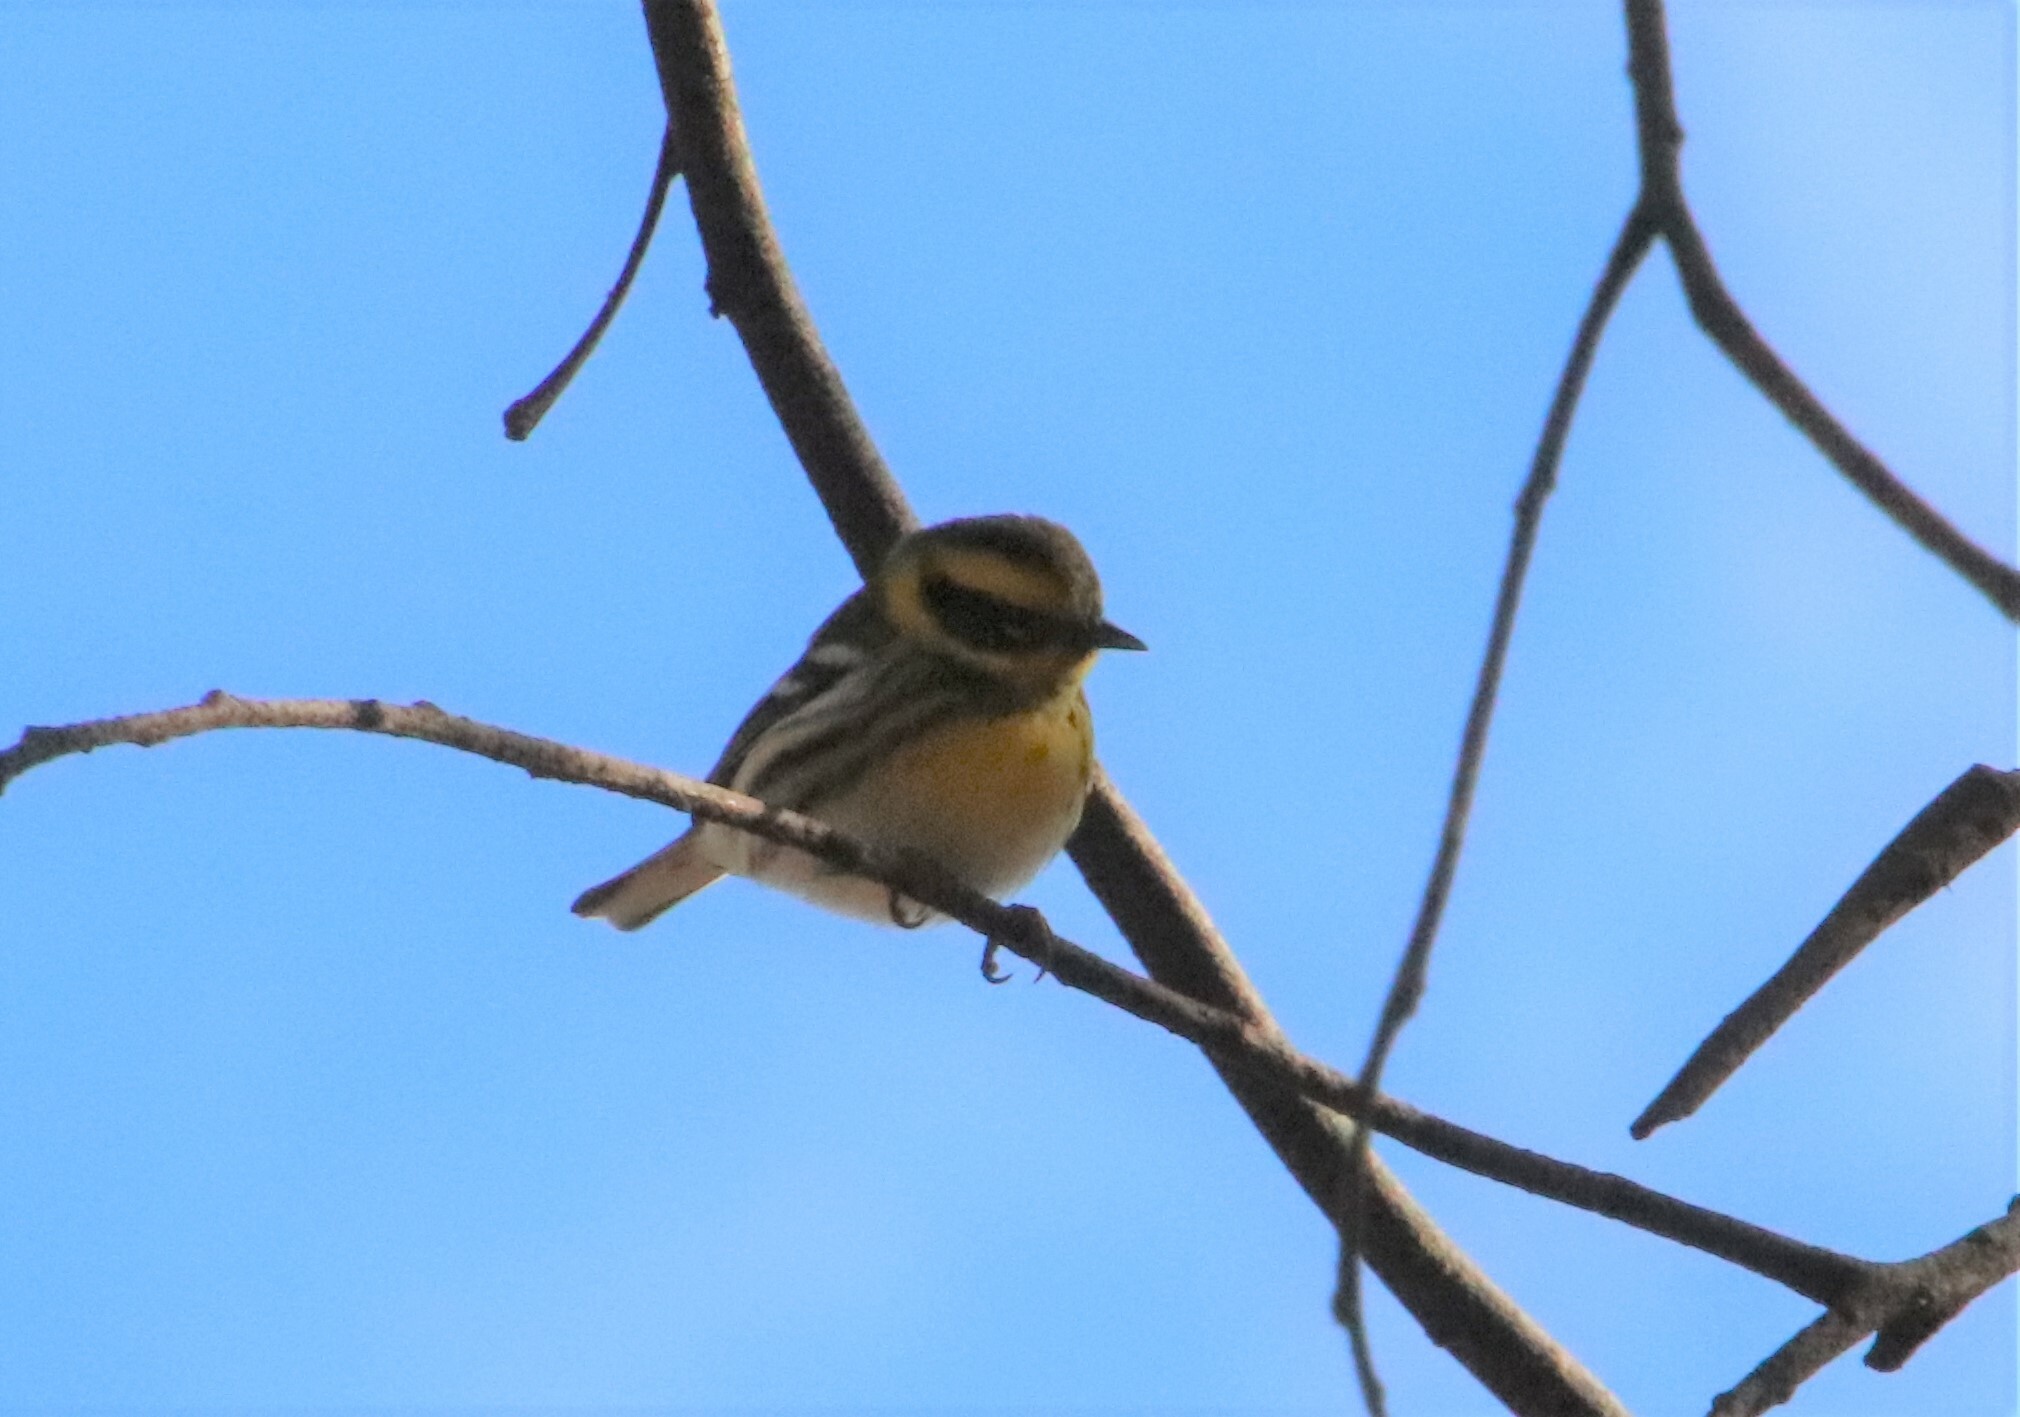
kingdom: Animalia
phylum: Chordata
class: Aves
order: Passeriformes
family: Parulidae
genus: Setophaga
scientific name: Setophaga townsendi
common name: Townsend's warbler
